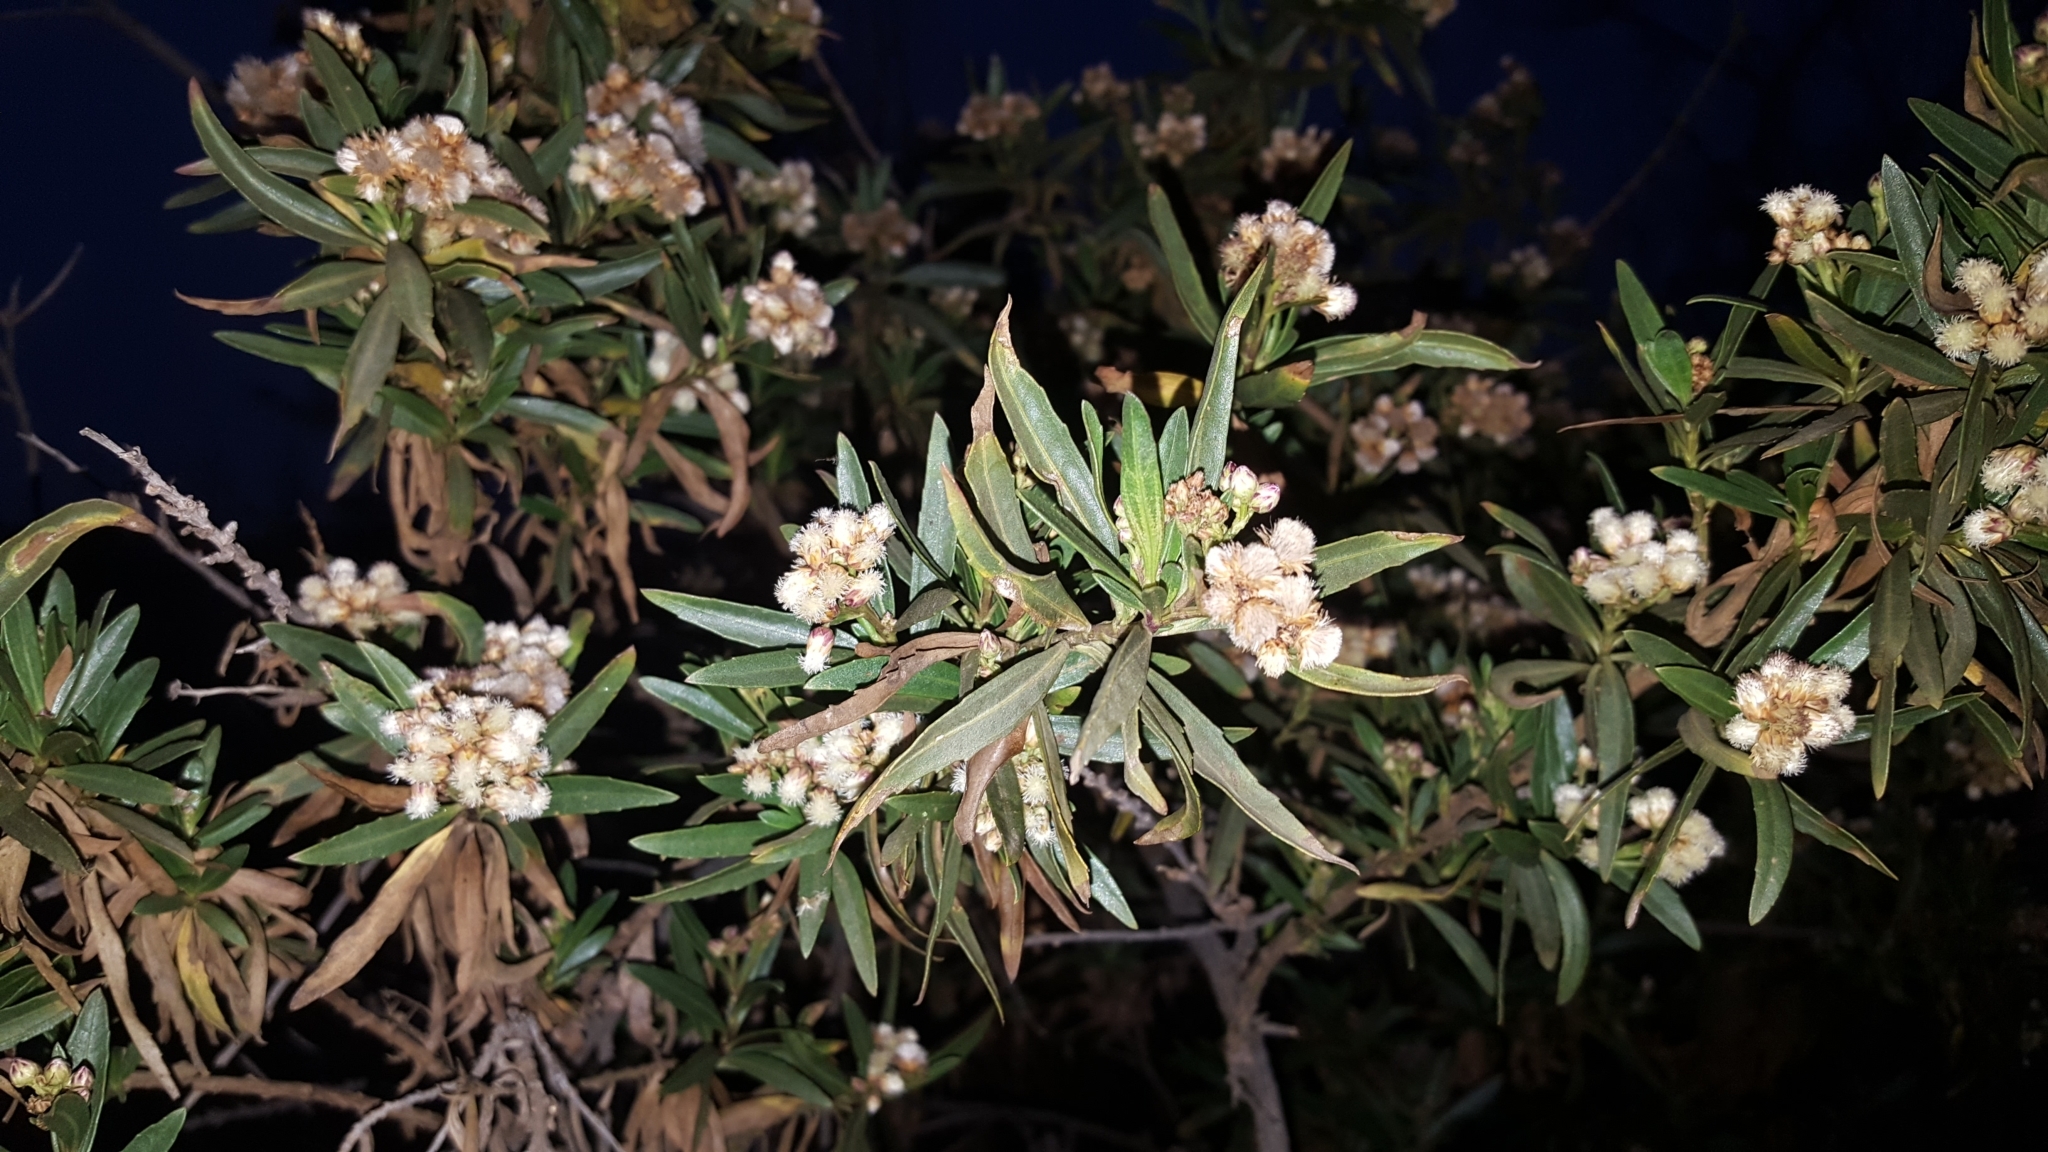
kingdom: Plantae
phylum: Tracheophyta
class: Magnoliopsida
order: Asterales
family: Asteraceae
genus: Baccharis
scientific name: Baccharis salicifolia
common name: Sticky baccharis
